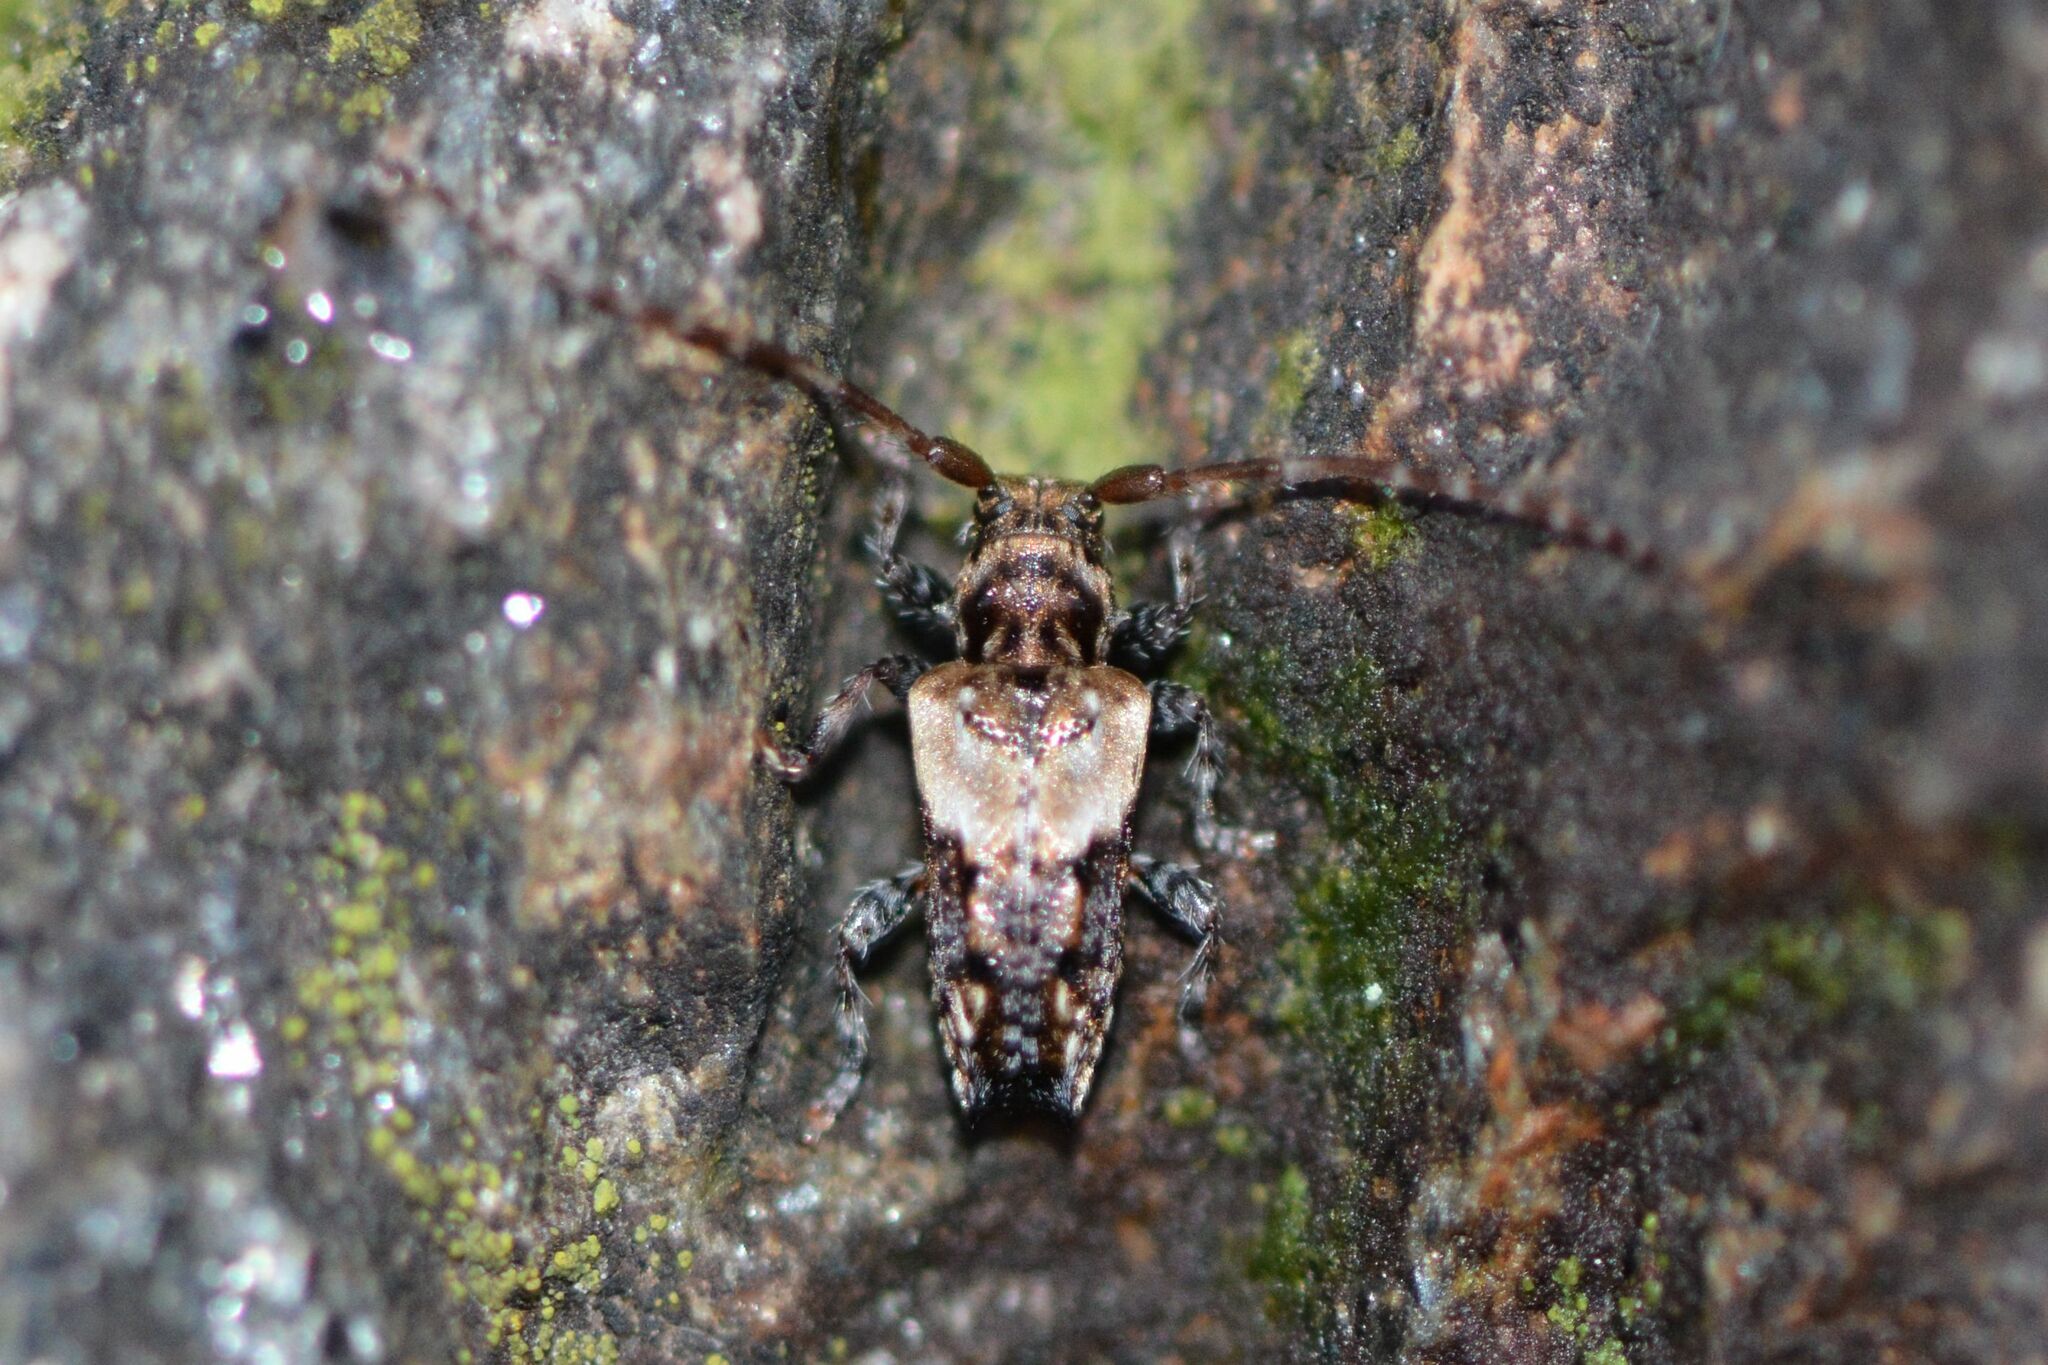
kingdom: Animalia
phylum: Arthropoda
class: Insecta
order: Coleoptera
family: Cerambycidae
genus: Pogonocherus
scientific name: Pogonocherus hispidus
